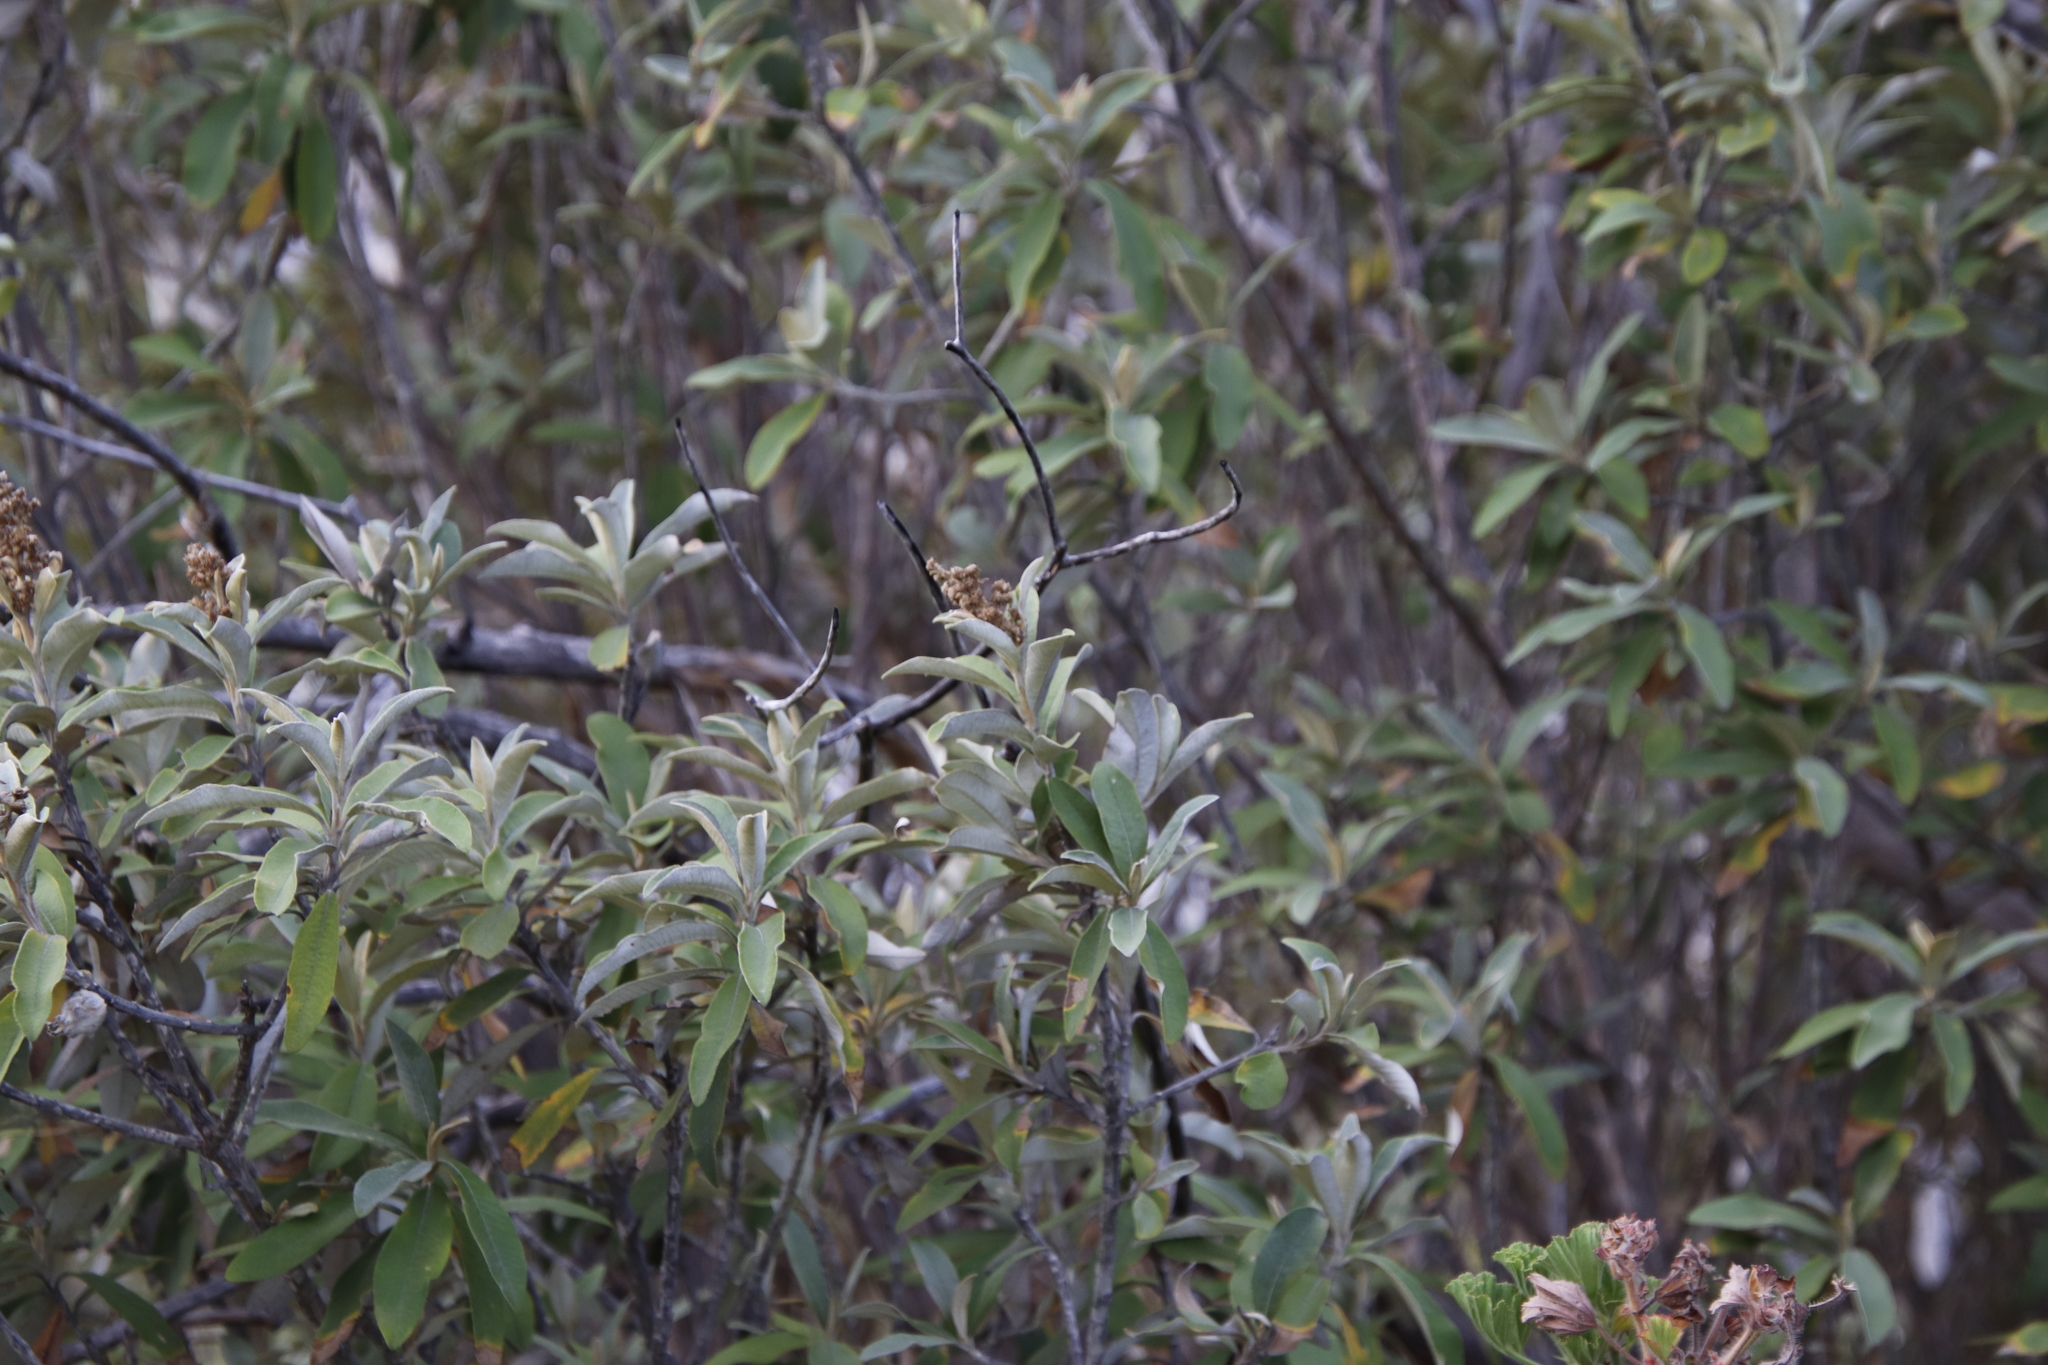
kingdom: Plantae
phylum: Tracheophyta
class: Magnoliopsida
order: Asterales
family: Asteraceae
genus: Tarchonanthus
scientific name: Tarchonanthus littoralis
